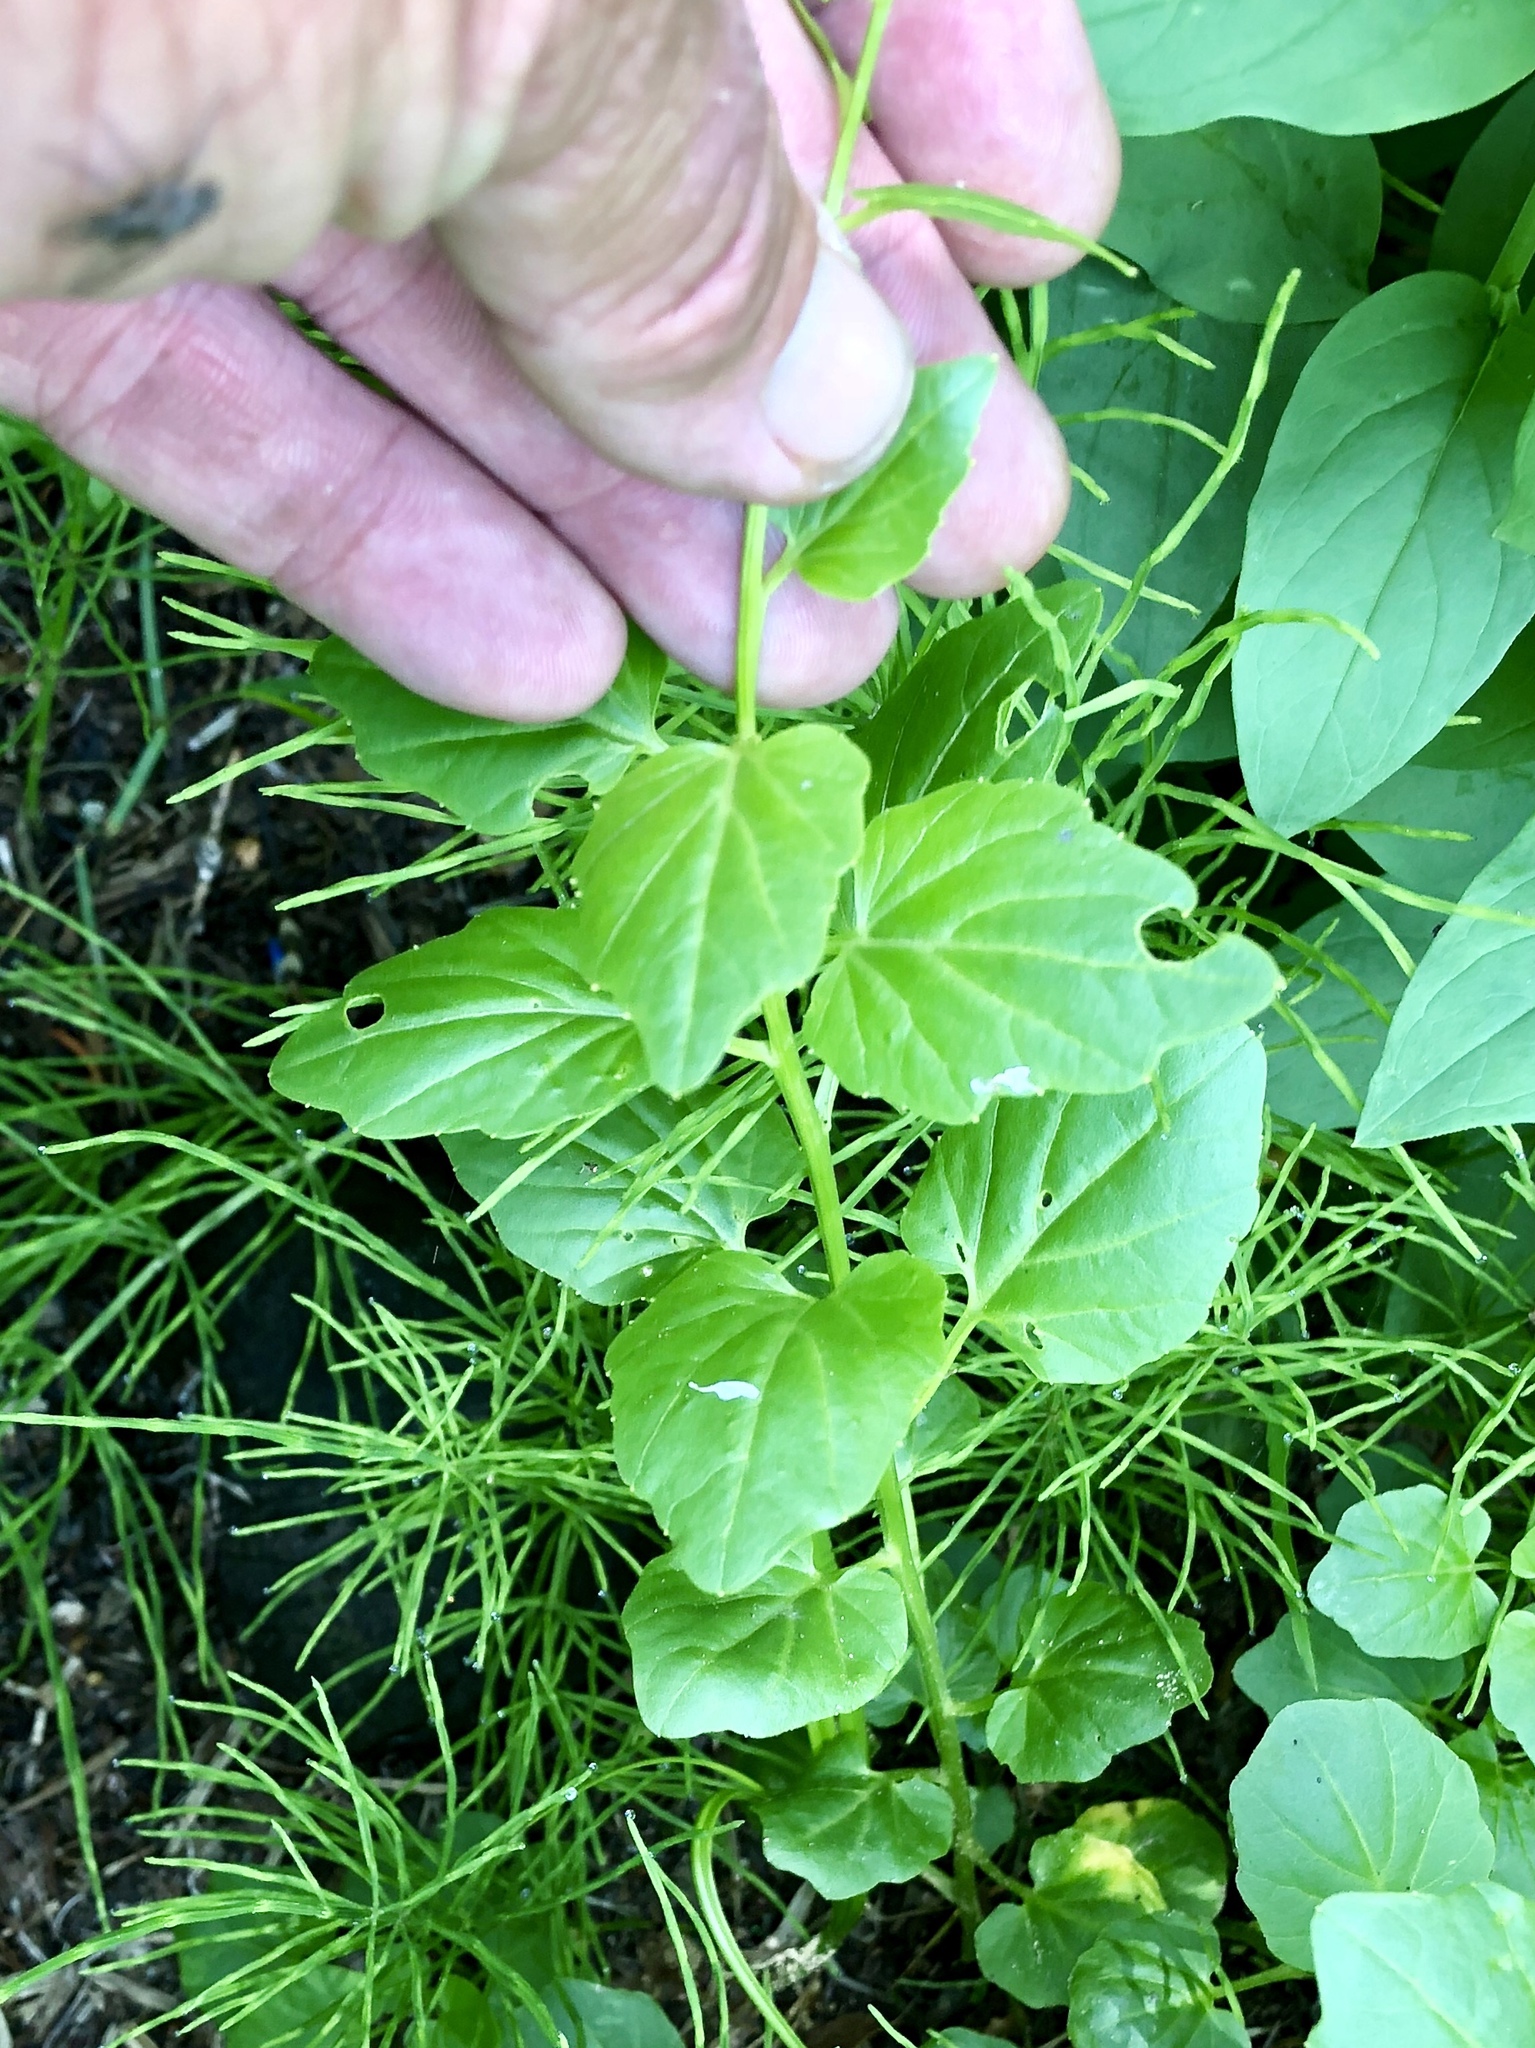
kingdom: Plantae
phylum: Tracheophyta
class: Magnoliopsida
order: Brassicales
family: Brassicaceae
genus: Cardamine
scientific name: Cardamine cordifolia
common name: Heart-leaf bittercress
